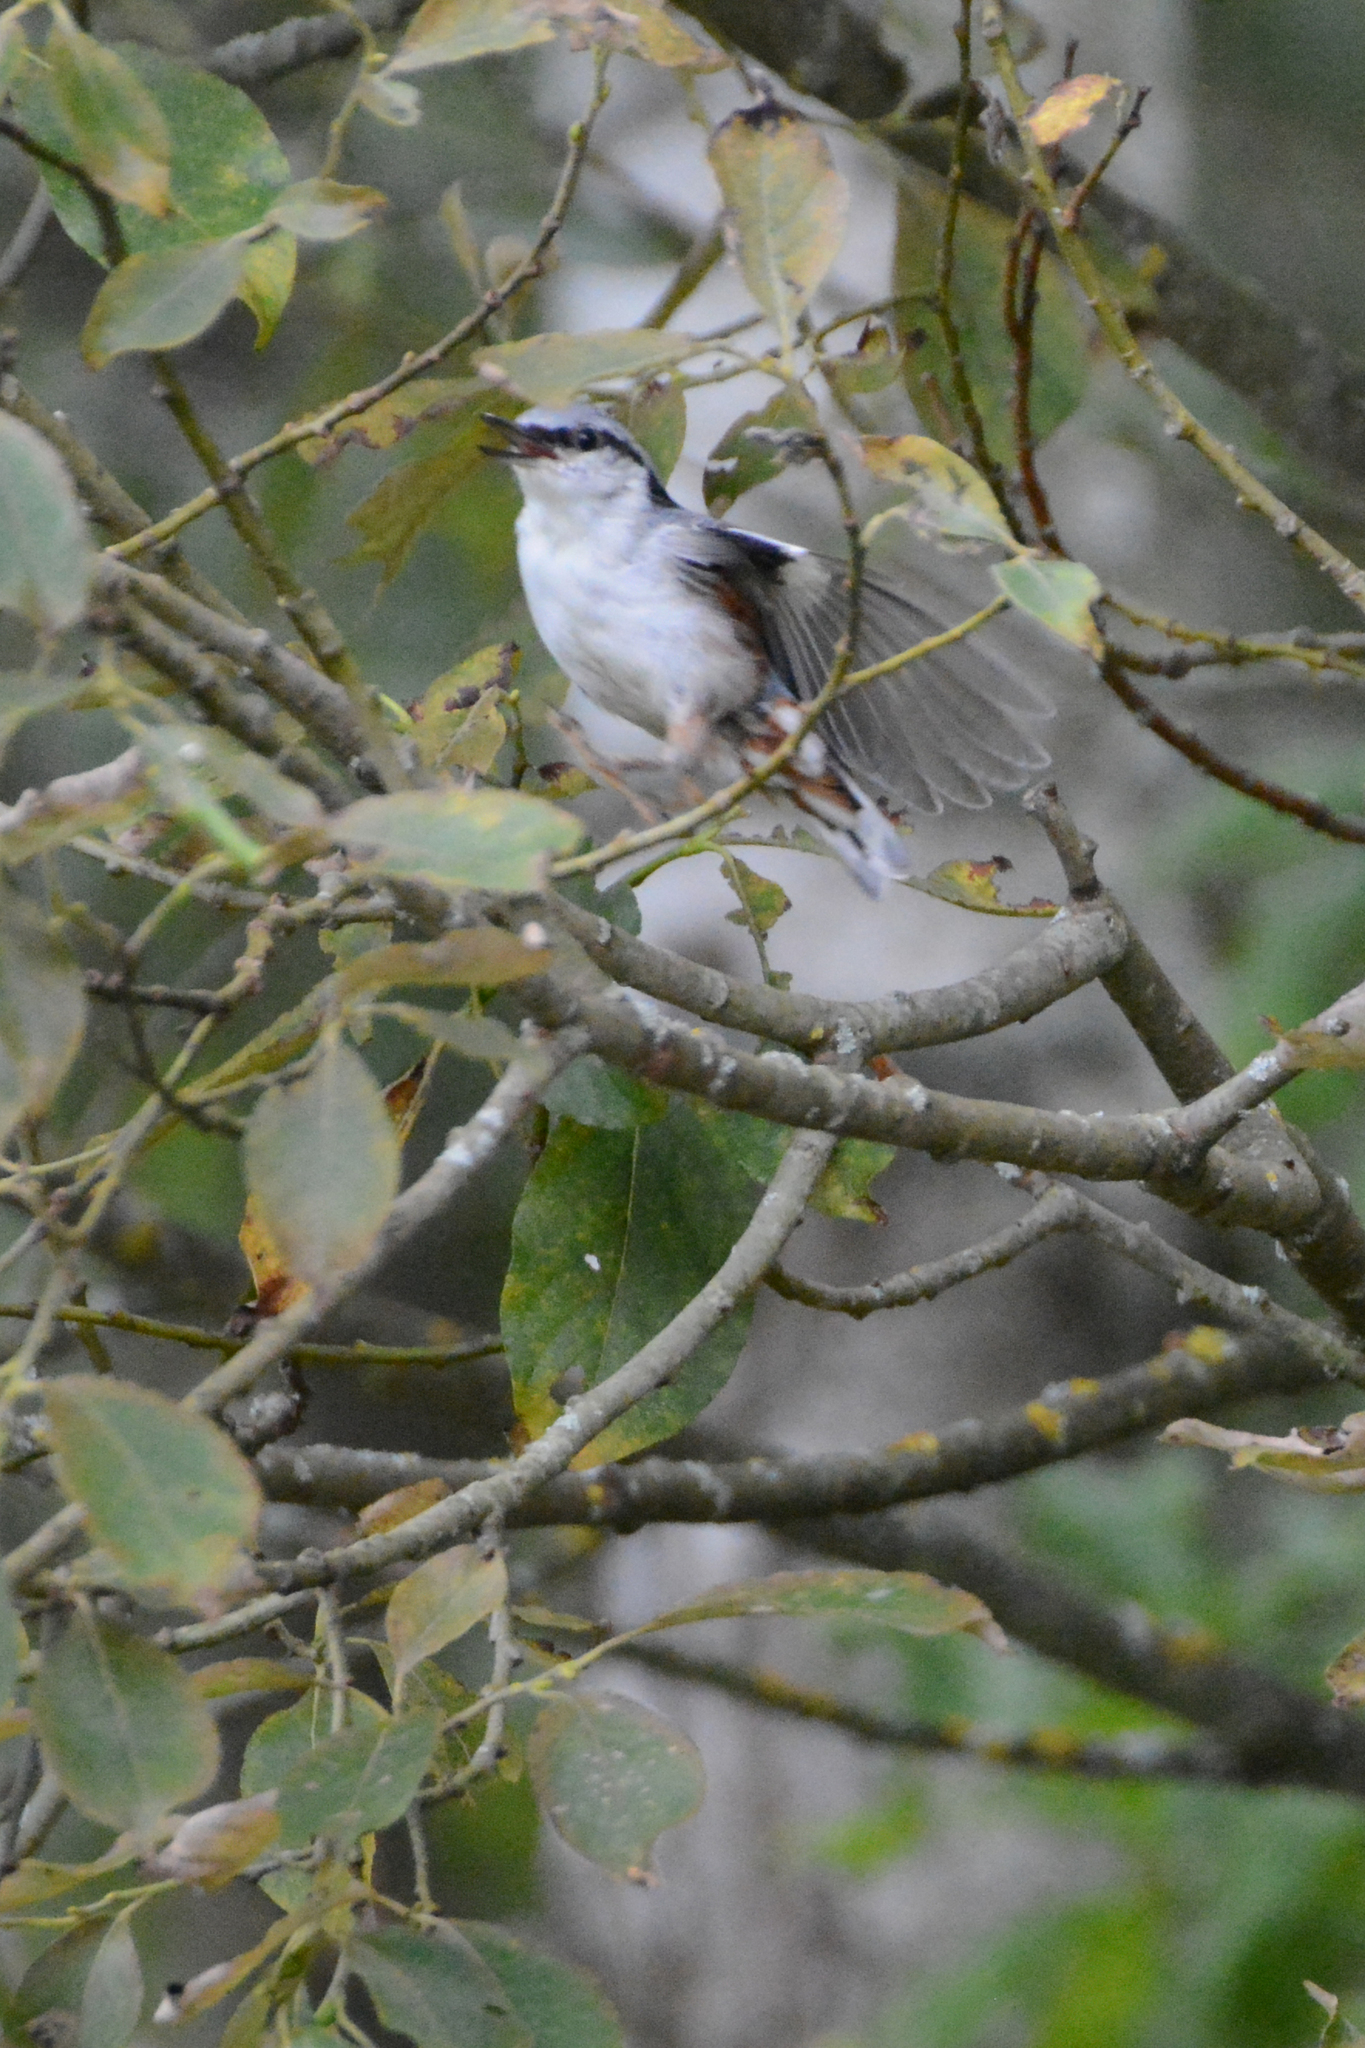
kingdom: Animalia
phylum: Chordata
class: Aves
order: Passeriformes
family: Sittidae
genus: Sitta
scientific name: Sitta europaea
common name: Eurasian nuthatch
